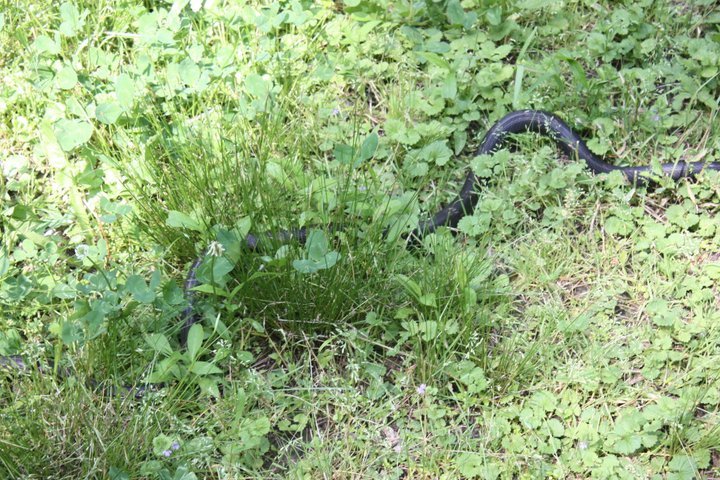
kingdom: Animalia
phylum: Chordata
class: Squamata
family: Colubridae
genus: Pantherophis
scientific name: Pantherophis obsoletus
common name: Black rat snake
